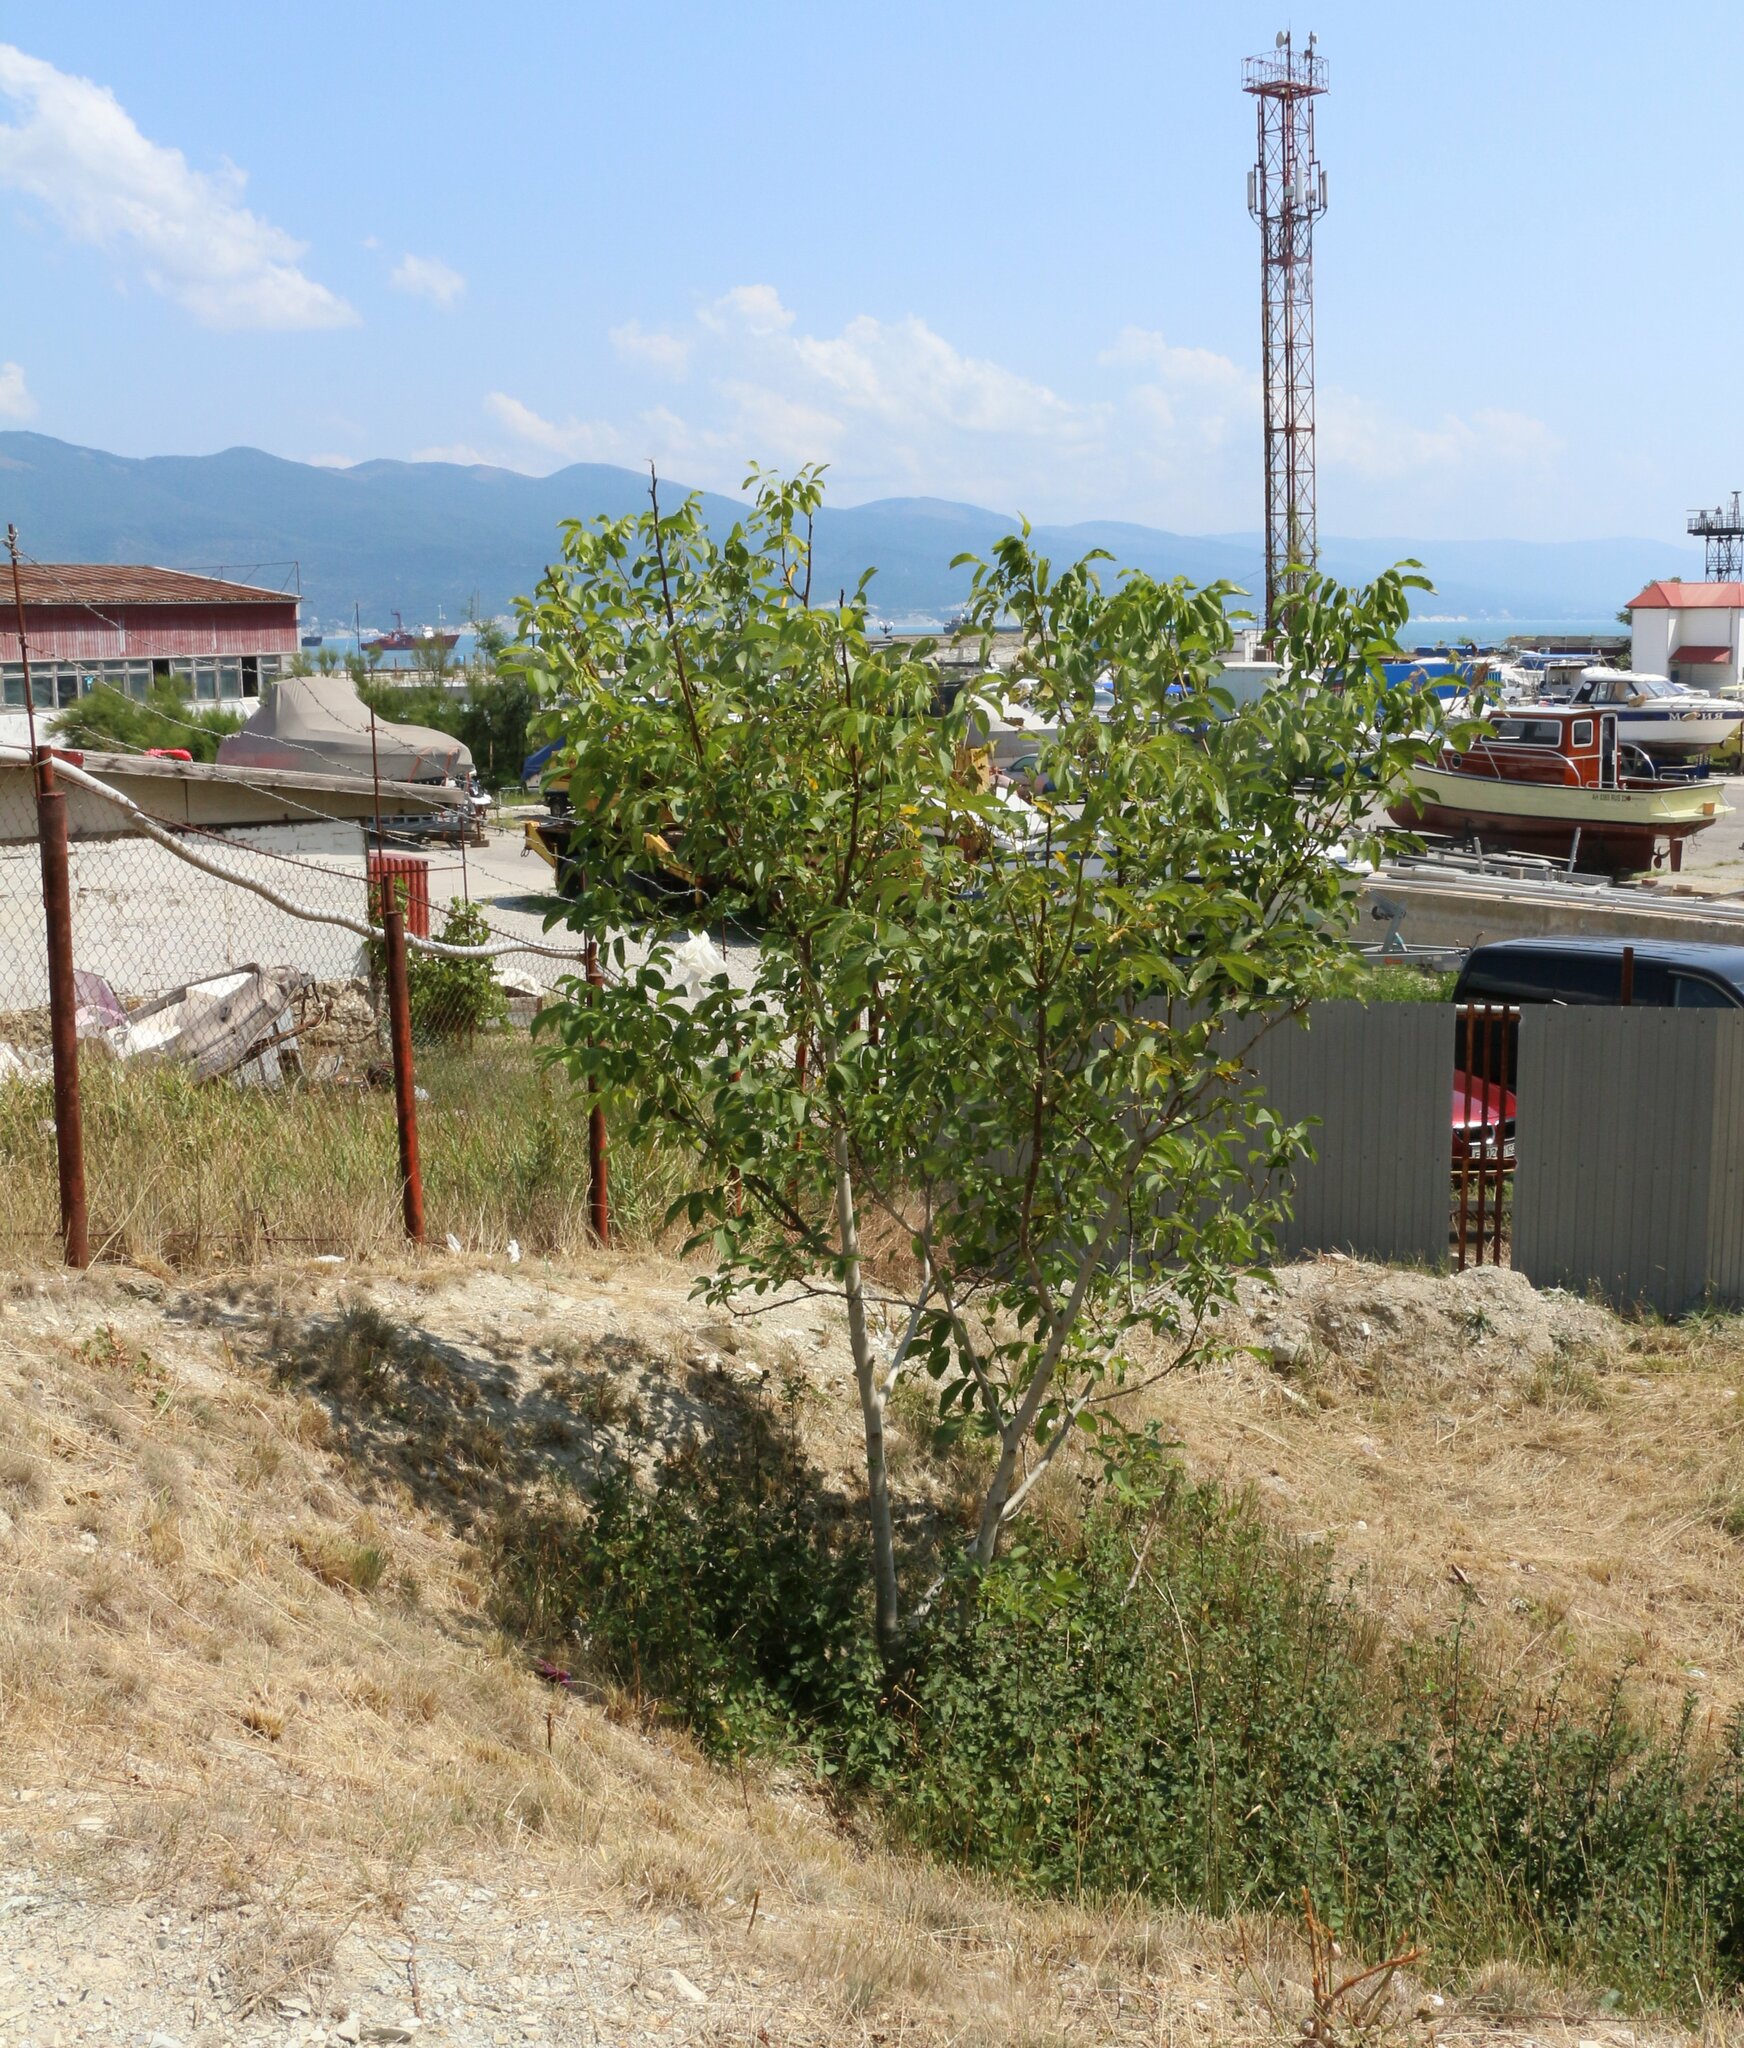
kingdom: Plantae
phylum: Tracheophyta
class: Magnoliopsida
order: Fagales
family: Juglandaceae
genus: Juglans
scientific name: Juglans regia
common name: Walnut
